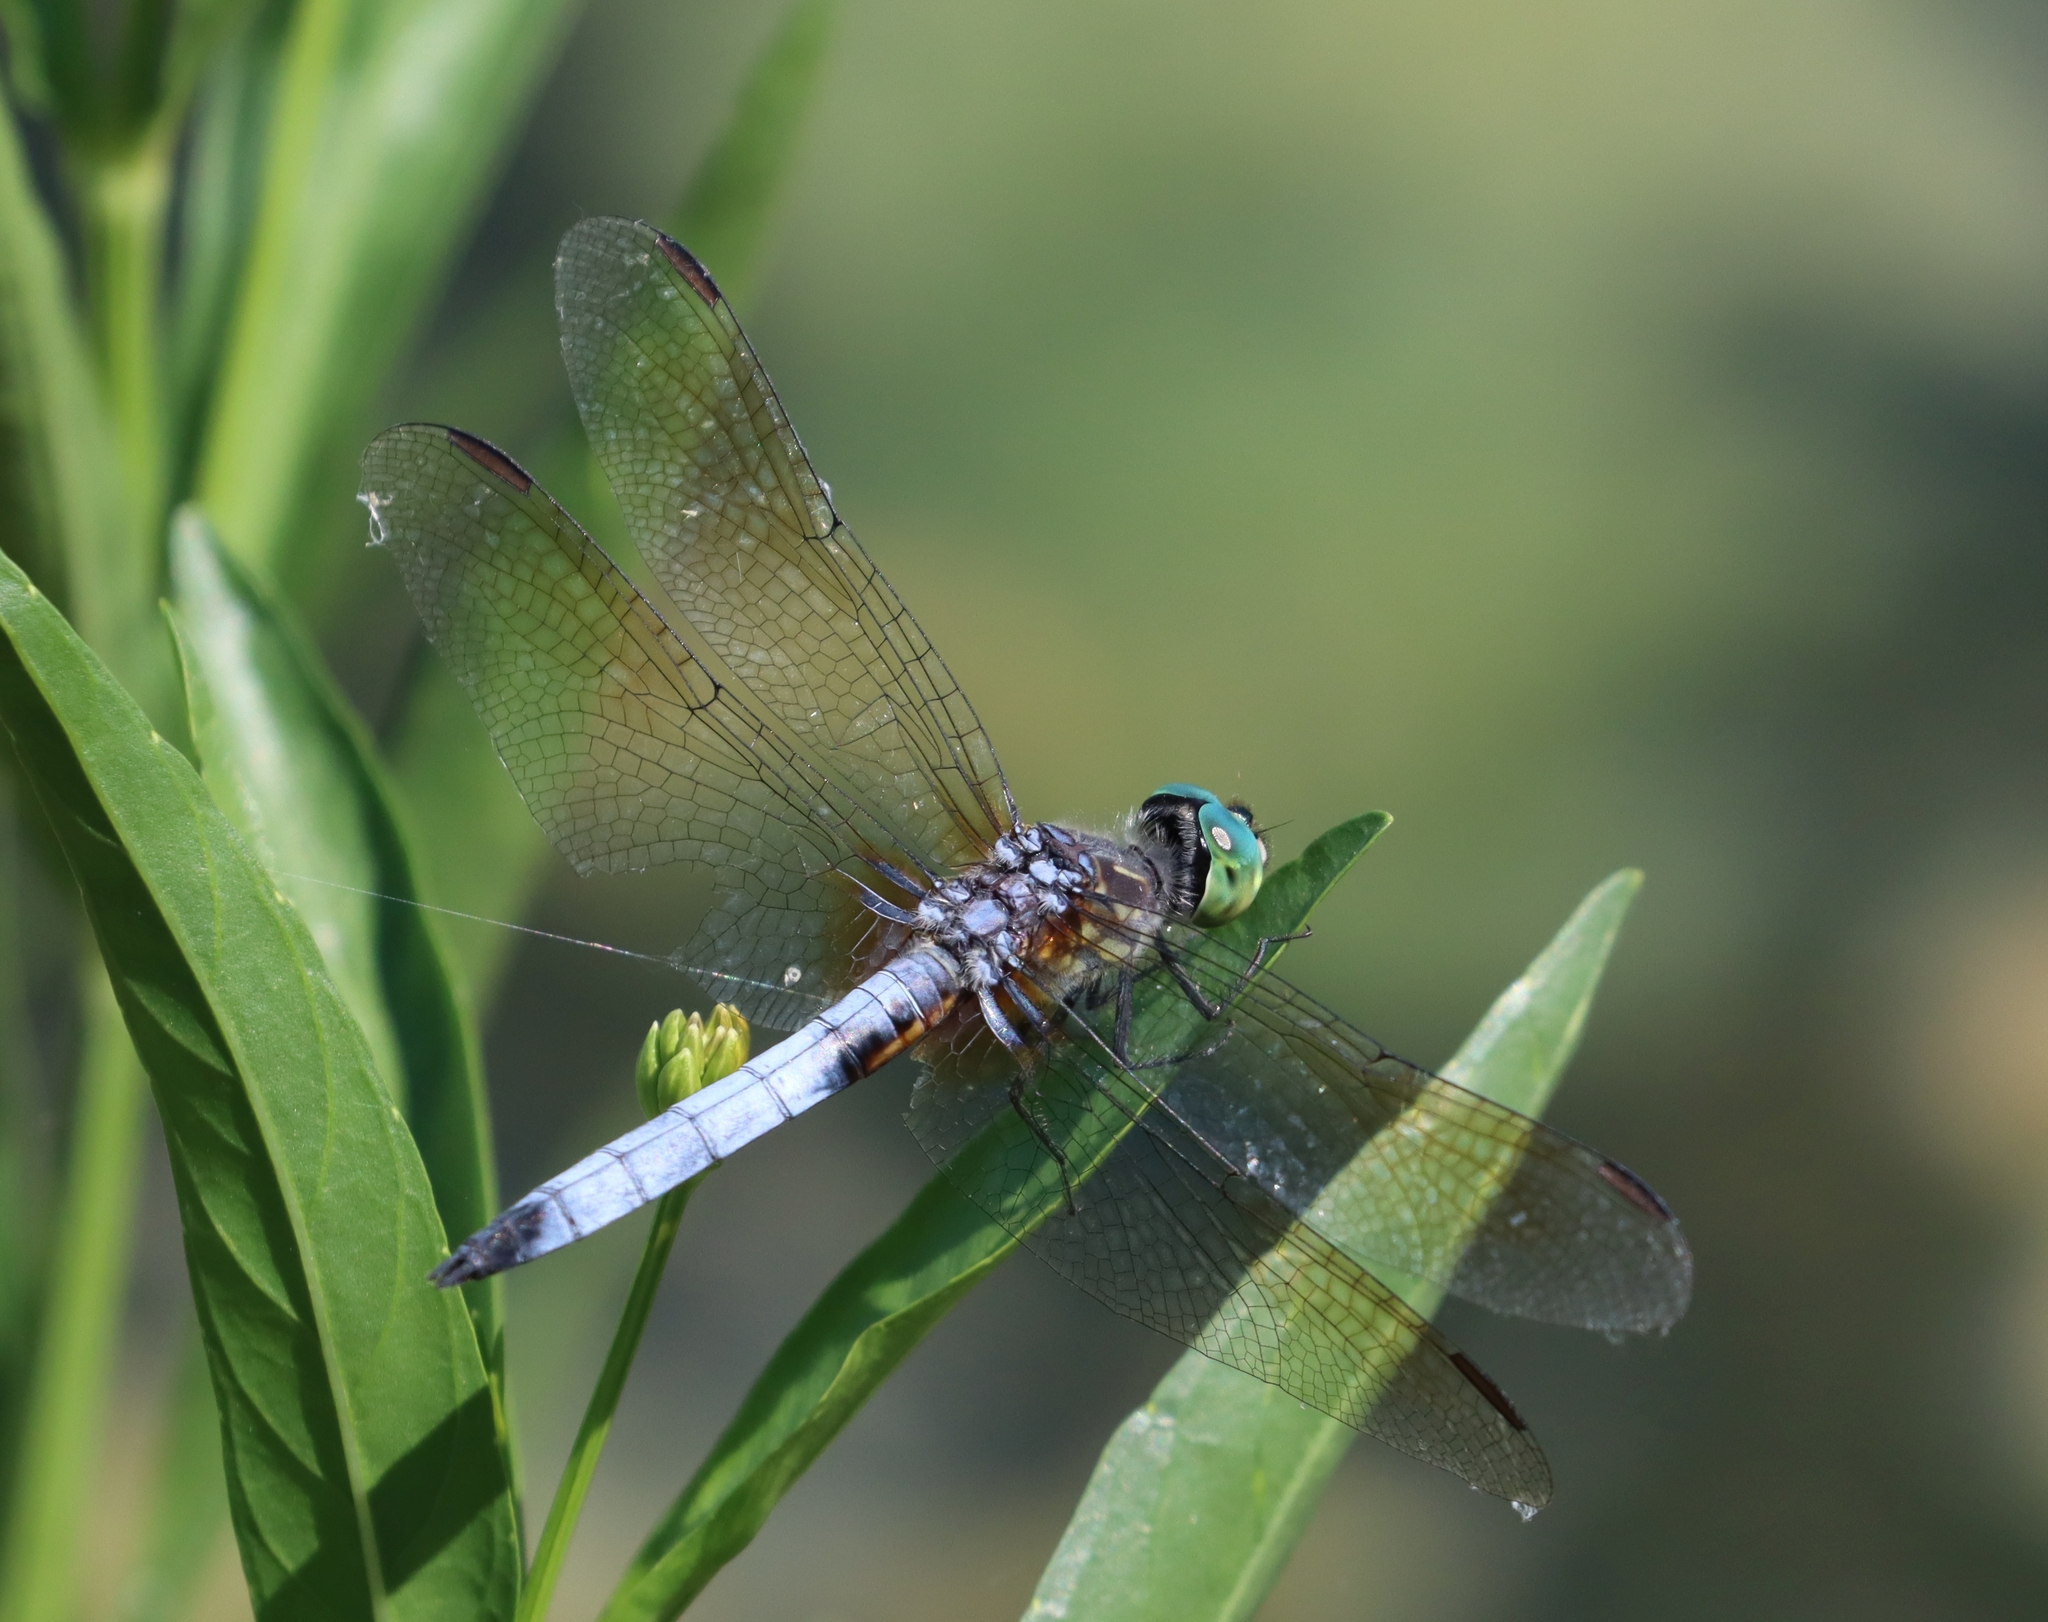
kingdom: Animalia
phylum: Arthropoda
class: Insecta
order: Odonata
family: Libellulidae
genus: Pachydiplax
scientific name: Pachydiplax longipennis
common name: Blue dasher
